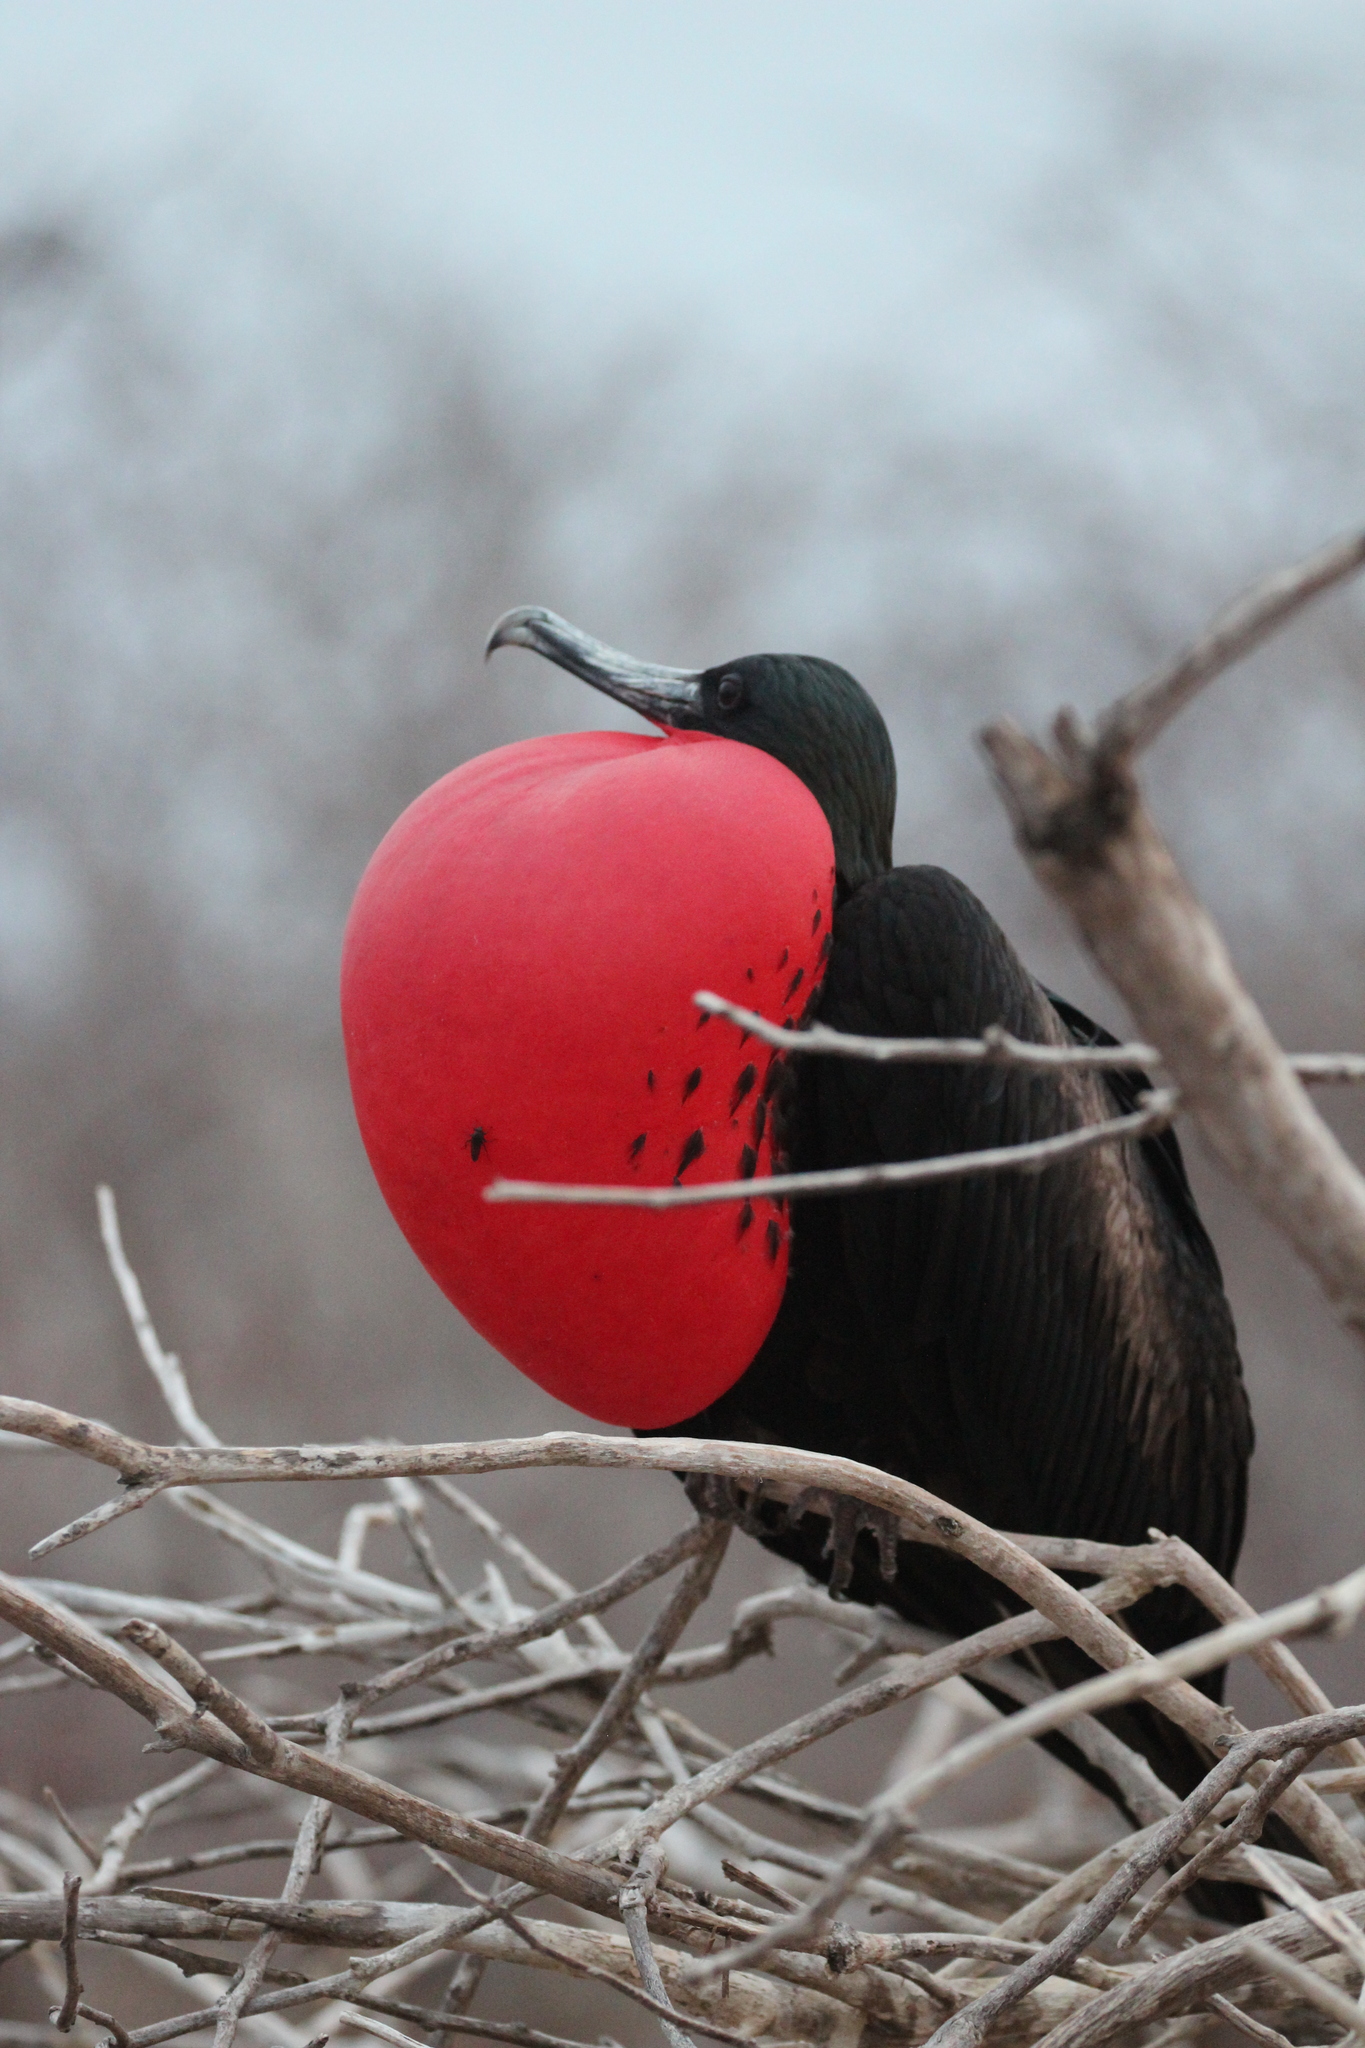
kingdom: Animalia
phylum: Chordata
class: Aves
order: Suliformes
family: Fregatidae
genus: Fregata
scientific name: Fregata minor
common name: Great frigatebird
